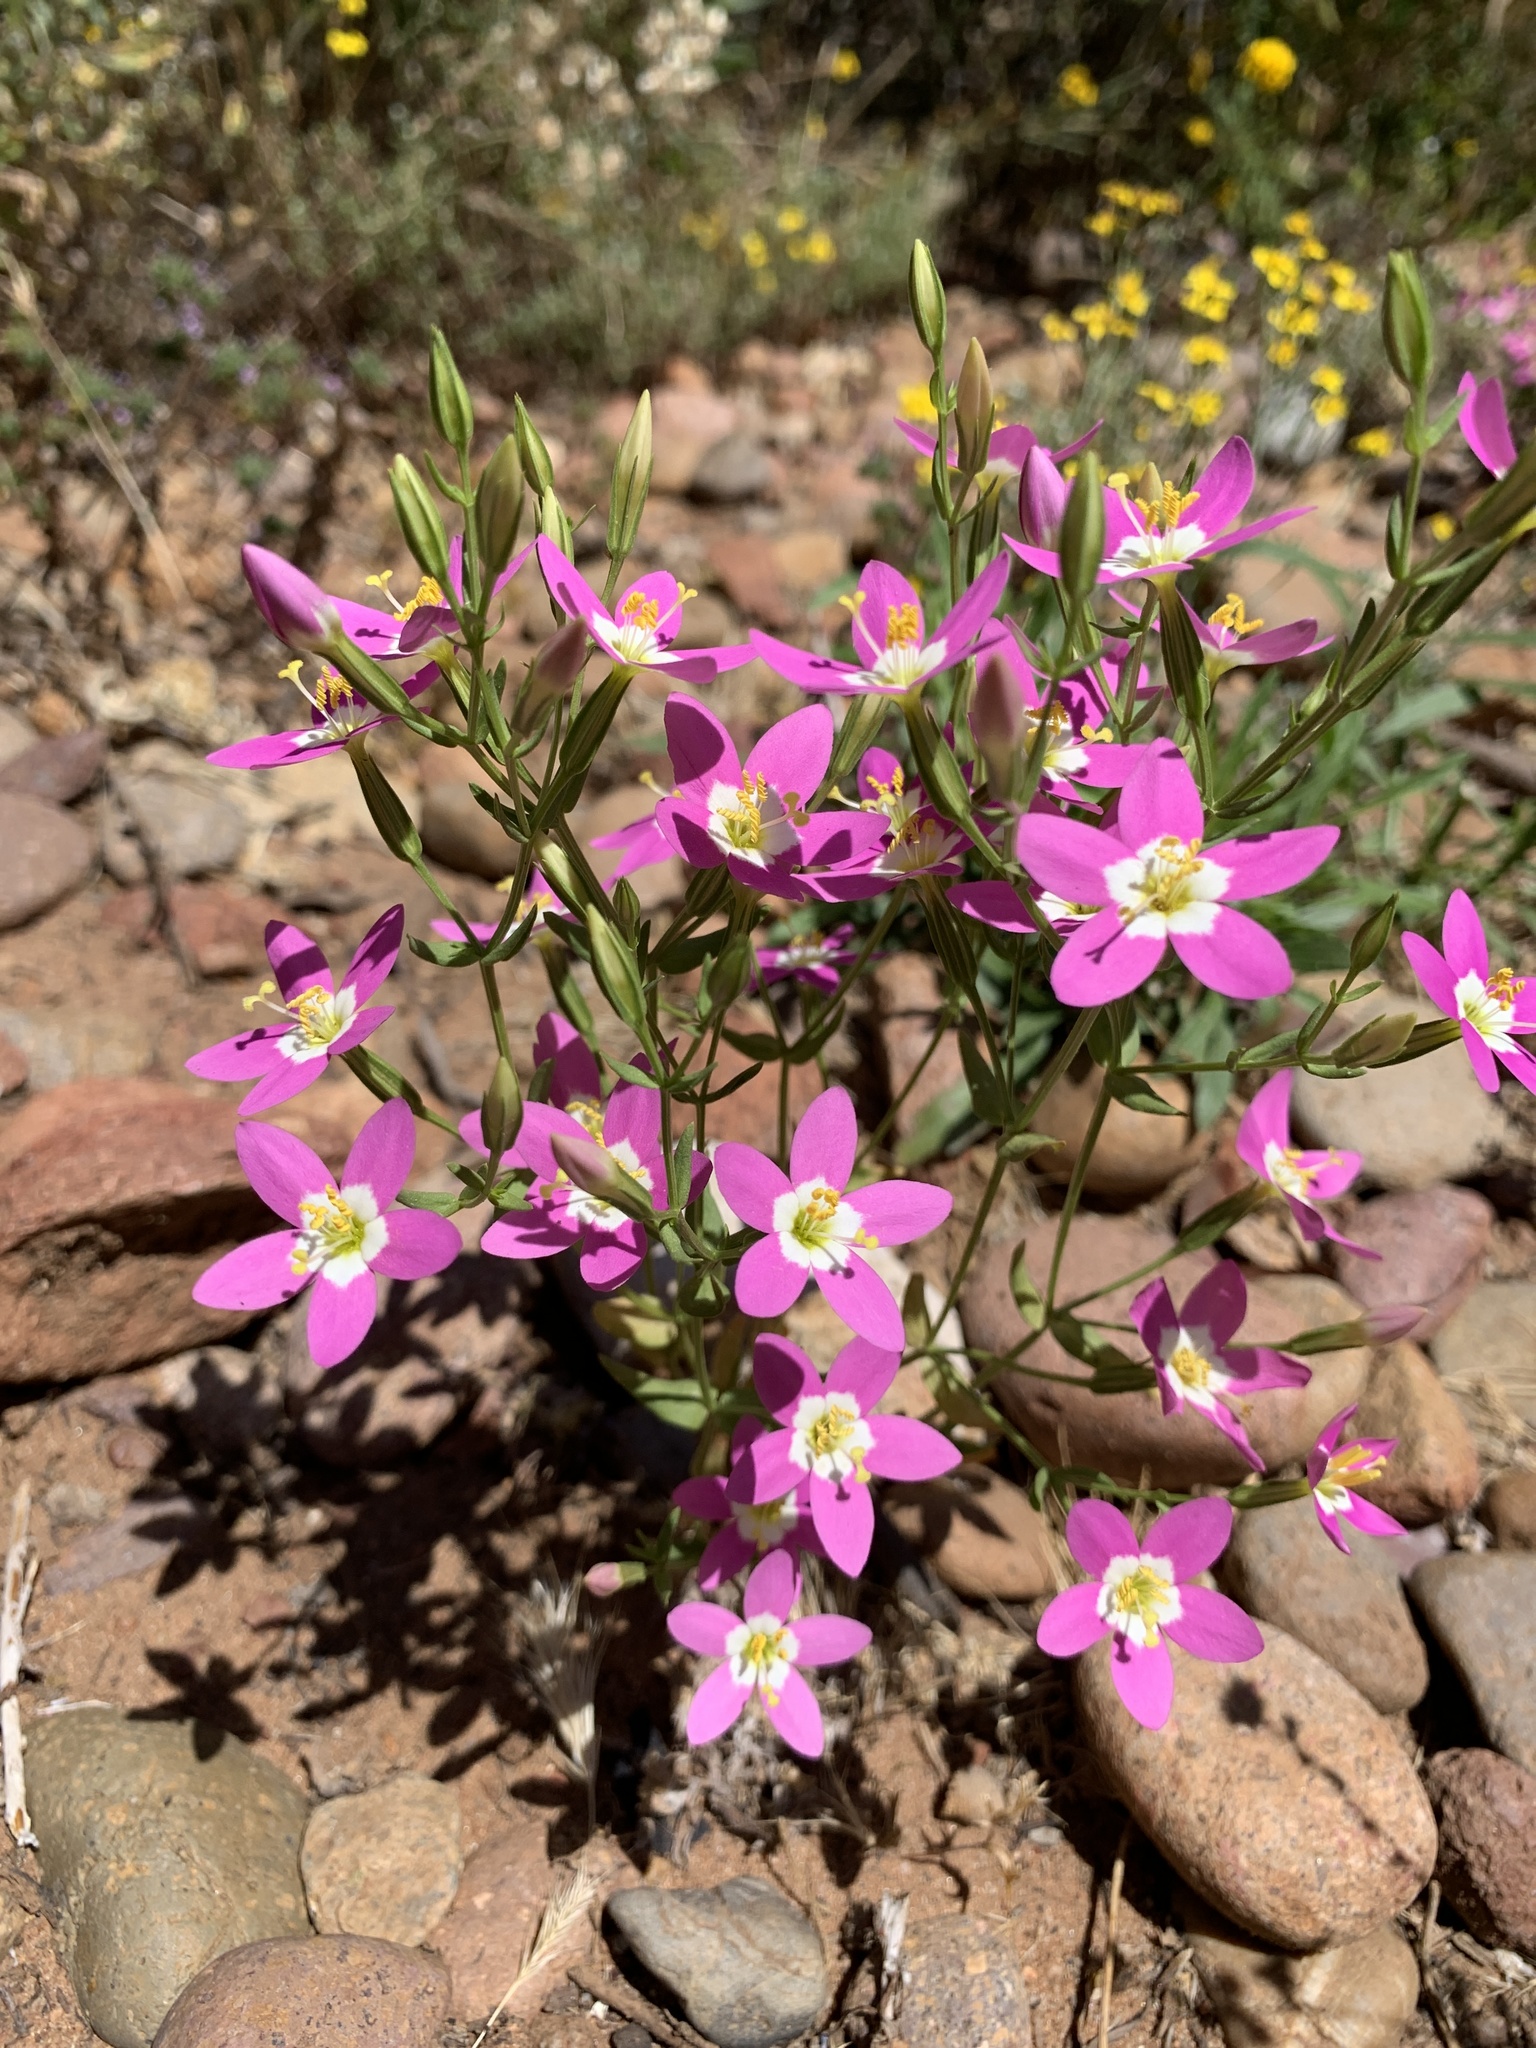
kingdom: Plantae
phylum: Tracheophyta
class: Magnoliopsida
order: Gentianales
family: Gentianaceae
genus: Zeltnera
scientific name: Zeltnera venusta
